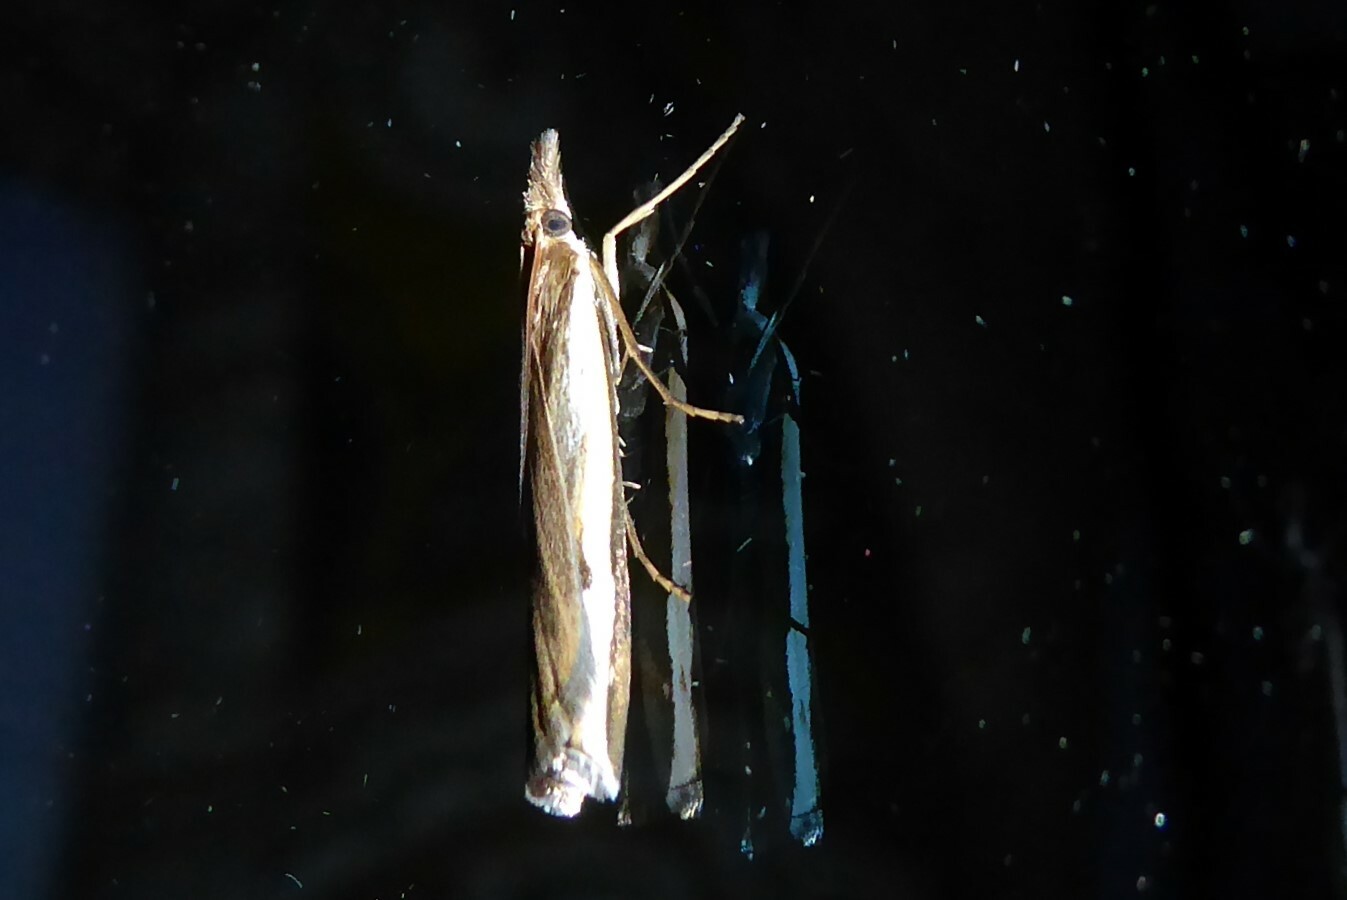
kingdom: Animalia
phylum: Arthropoda
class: Insecta
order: Lepidoptera
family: Crambidae
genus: Orocrambus
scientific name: Orocrambus flexuosellus
